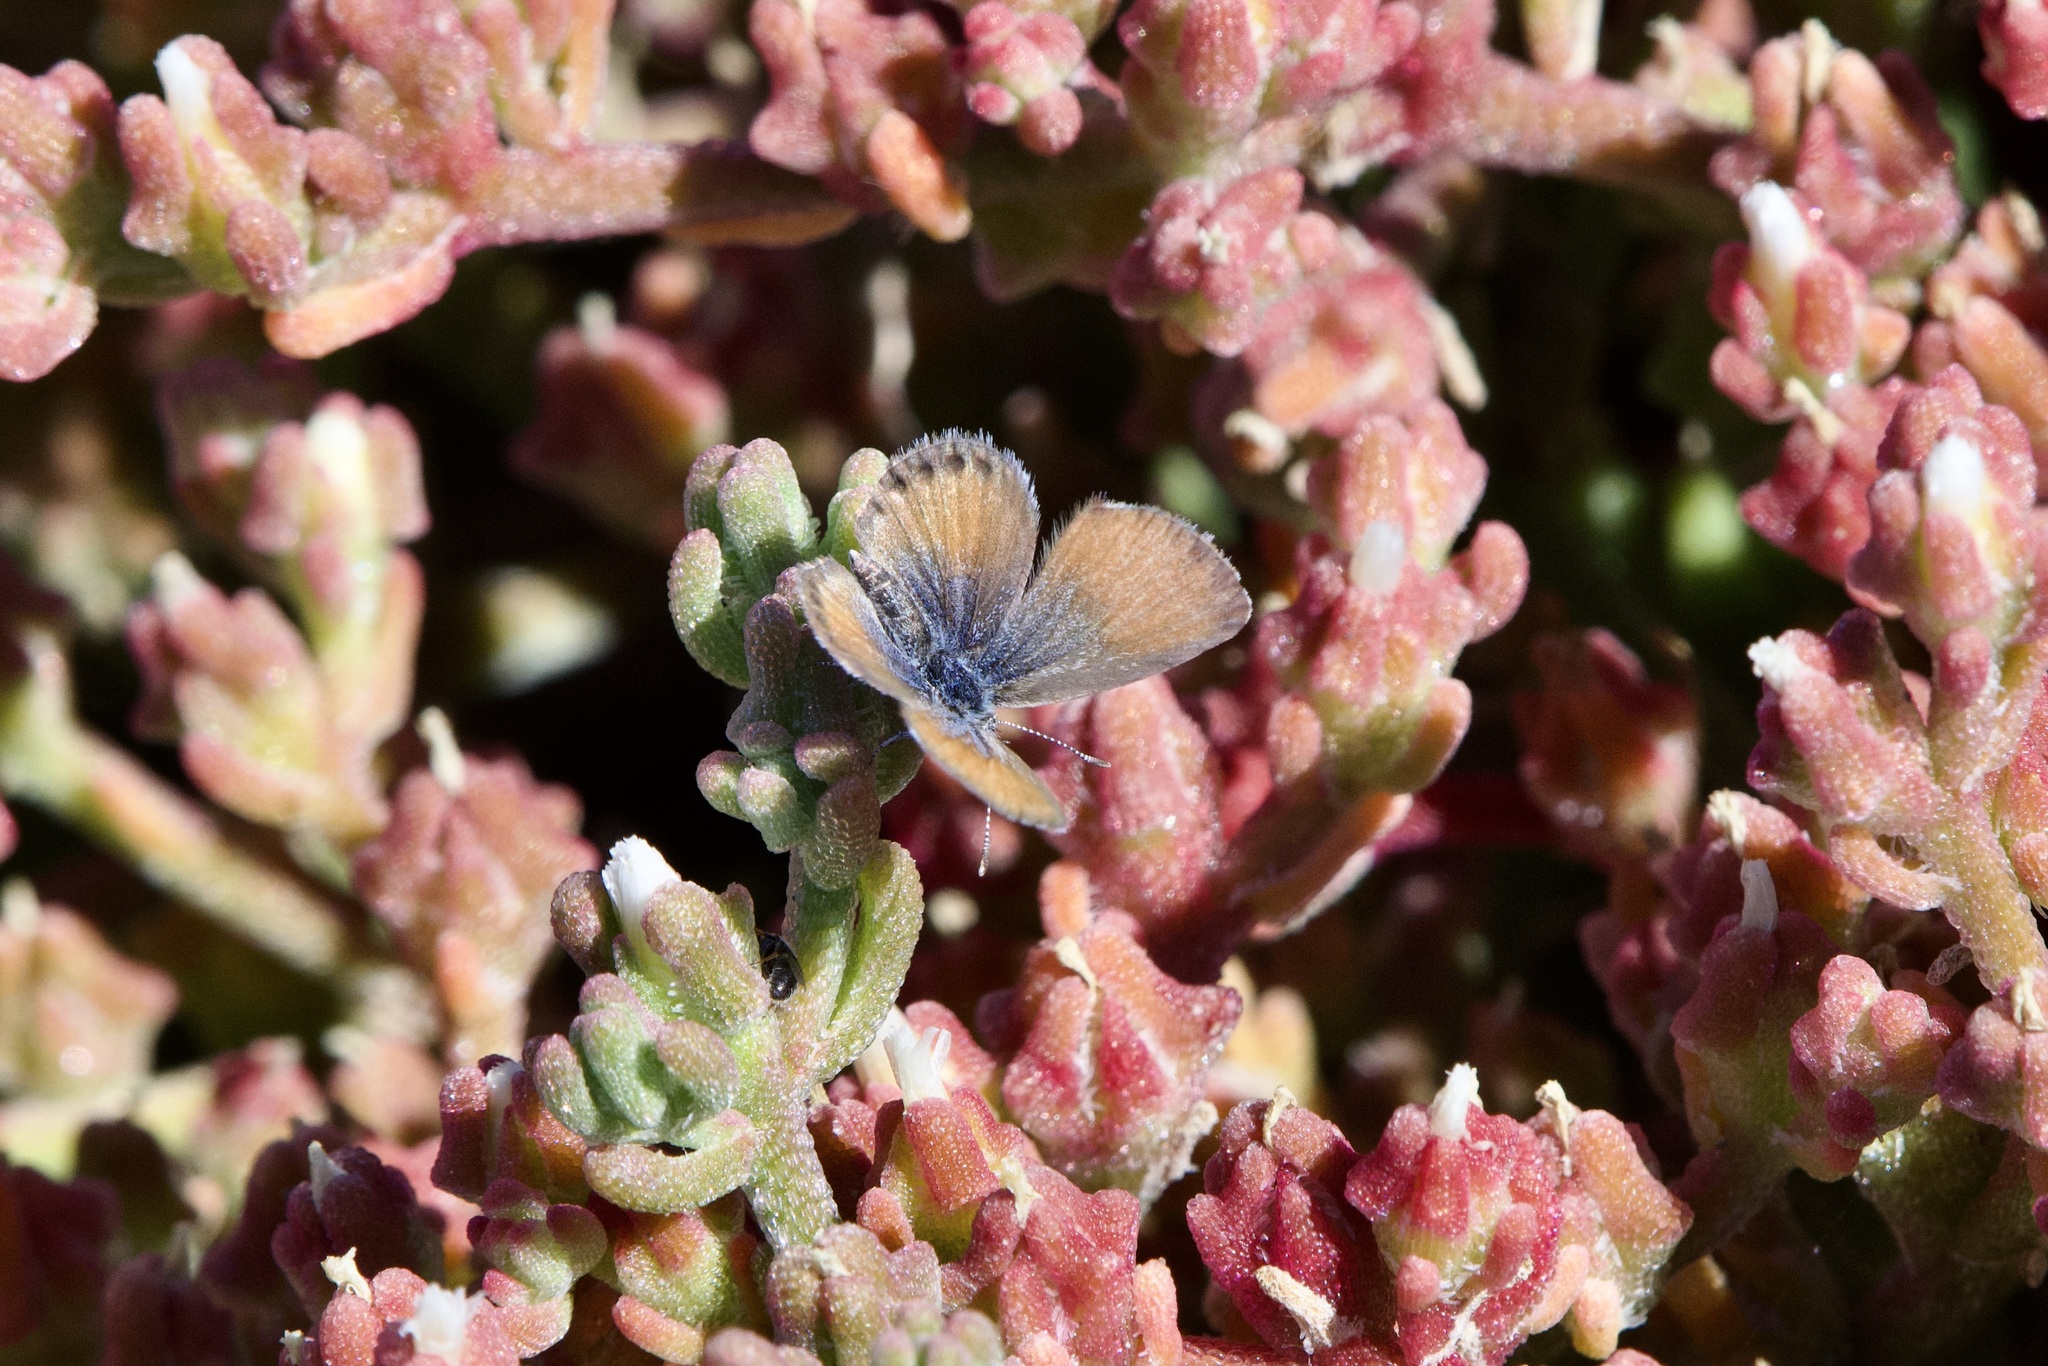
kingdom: Animalia
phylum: Arthropoda
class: Insecta
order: Lepidoptera
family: Lycaenidae
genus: Brephidium
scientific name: Brephidium exilis
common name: Pygmy blue
